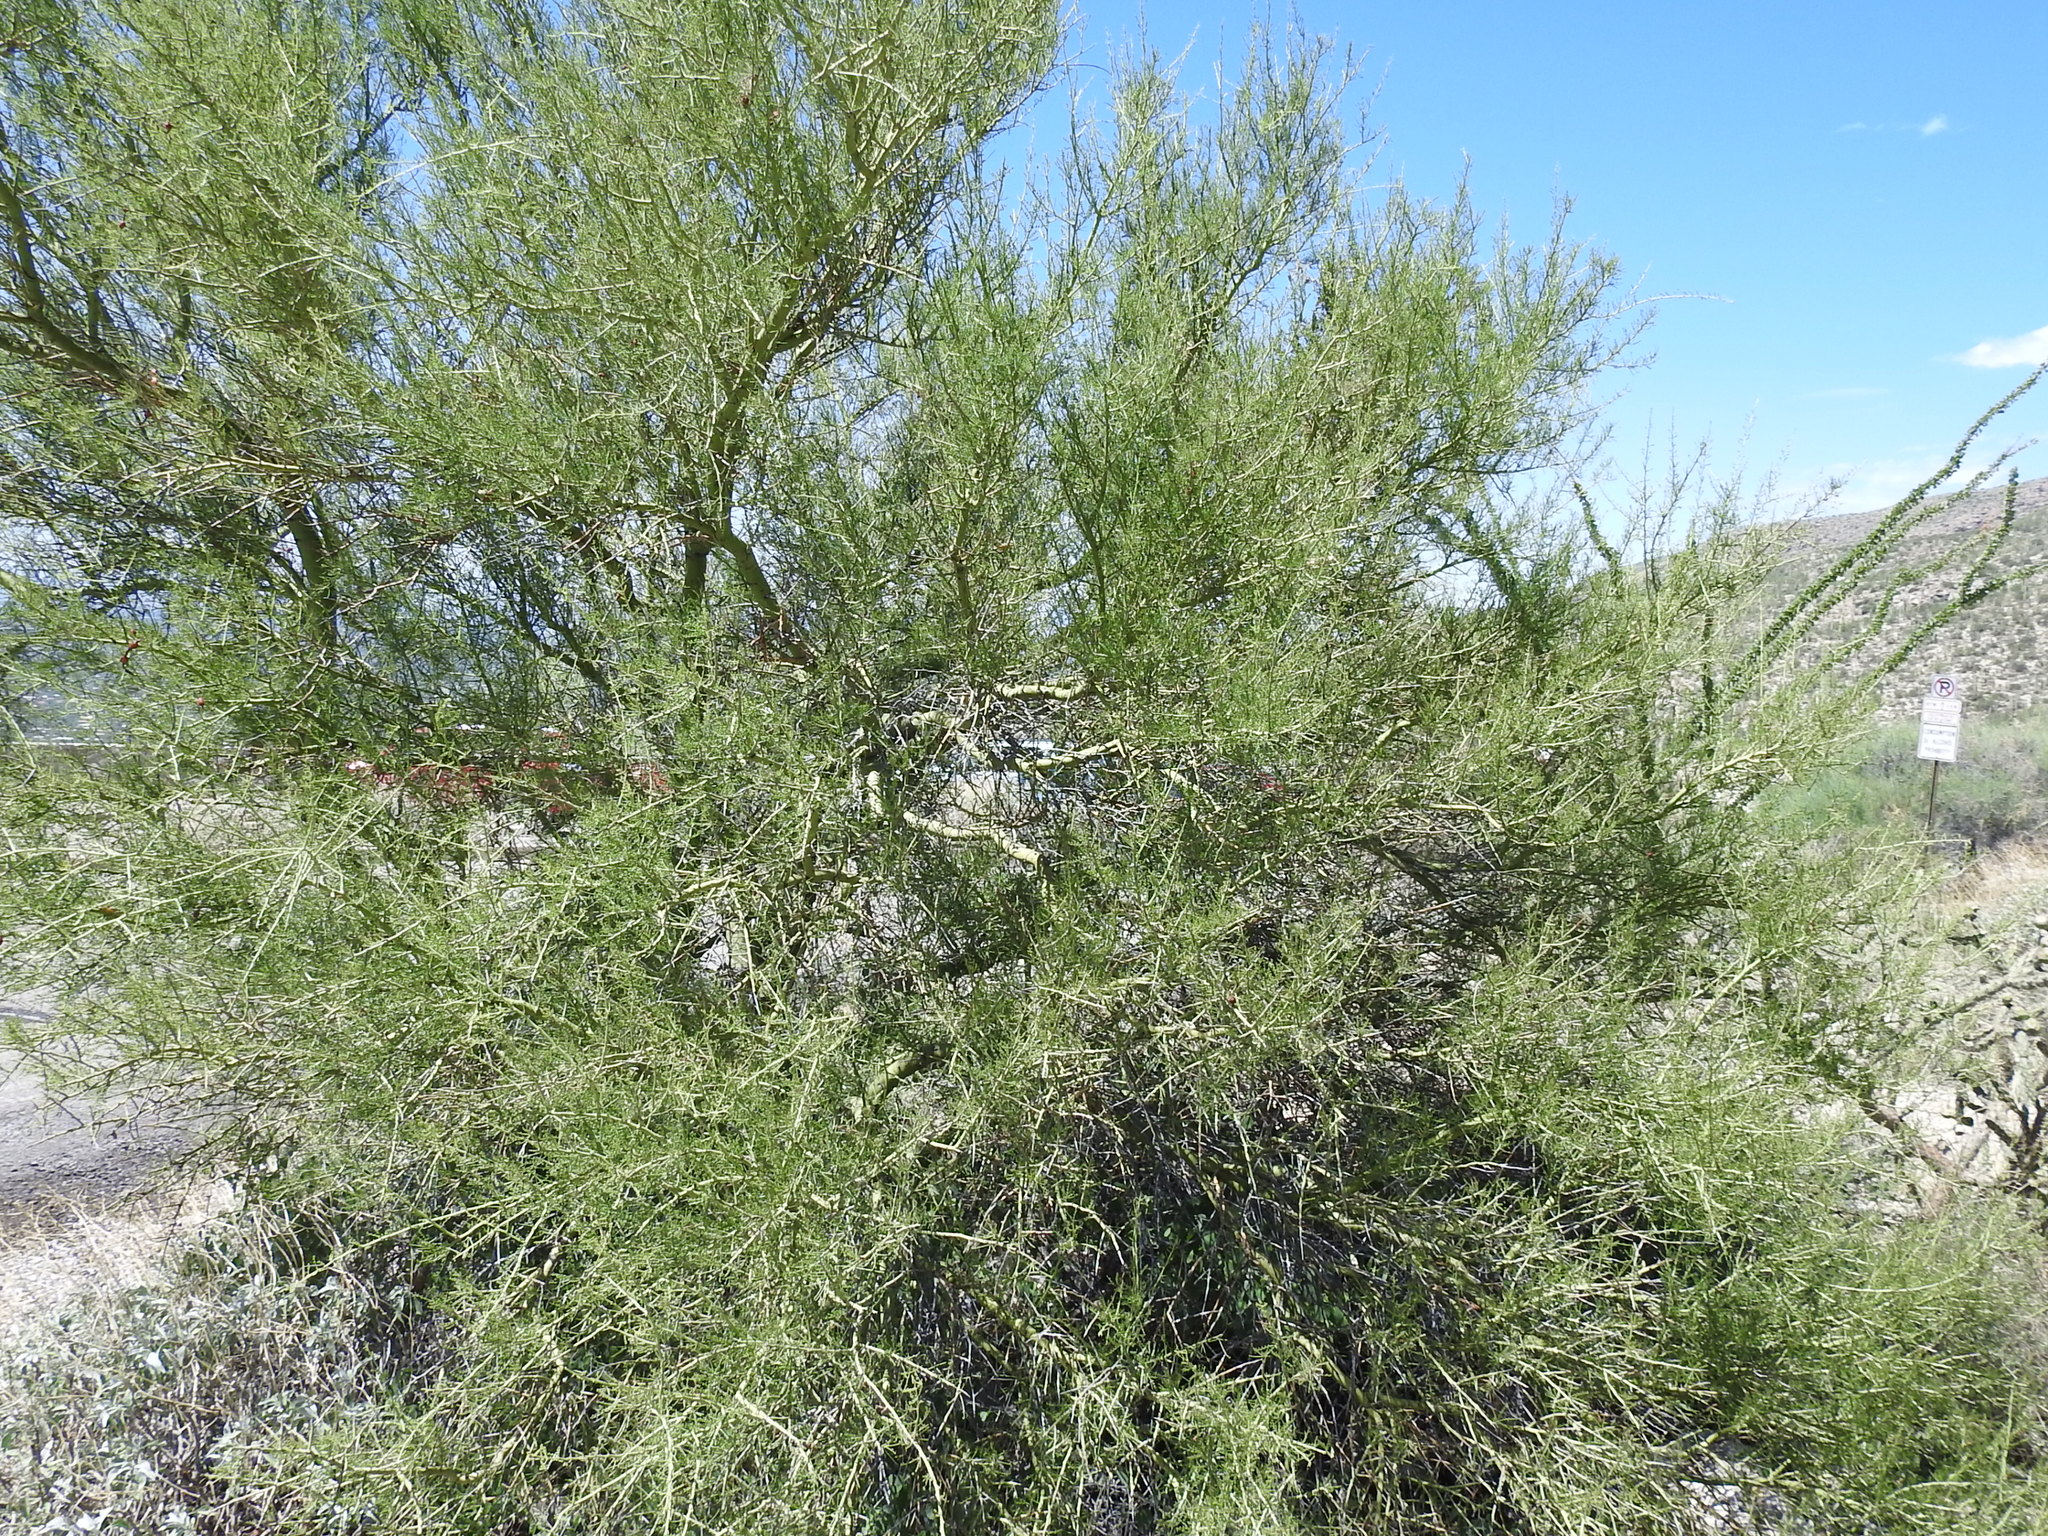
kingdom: Plantae
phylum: Tracheophyta
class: Magnoliopsida
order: Fabales
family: Fabaceae
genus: Parkinsonia
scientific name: Parkinsonia microphylla
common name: Yellow paloverde
